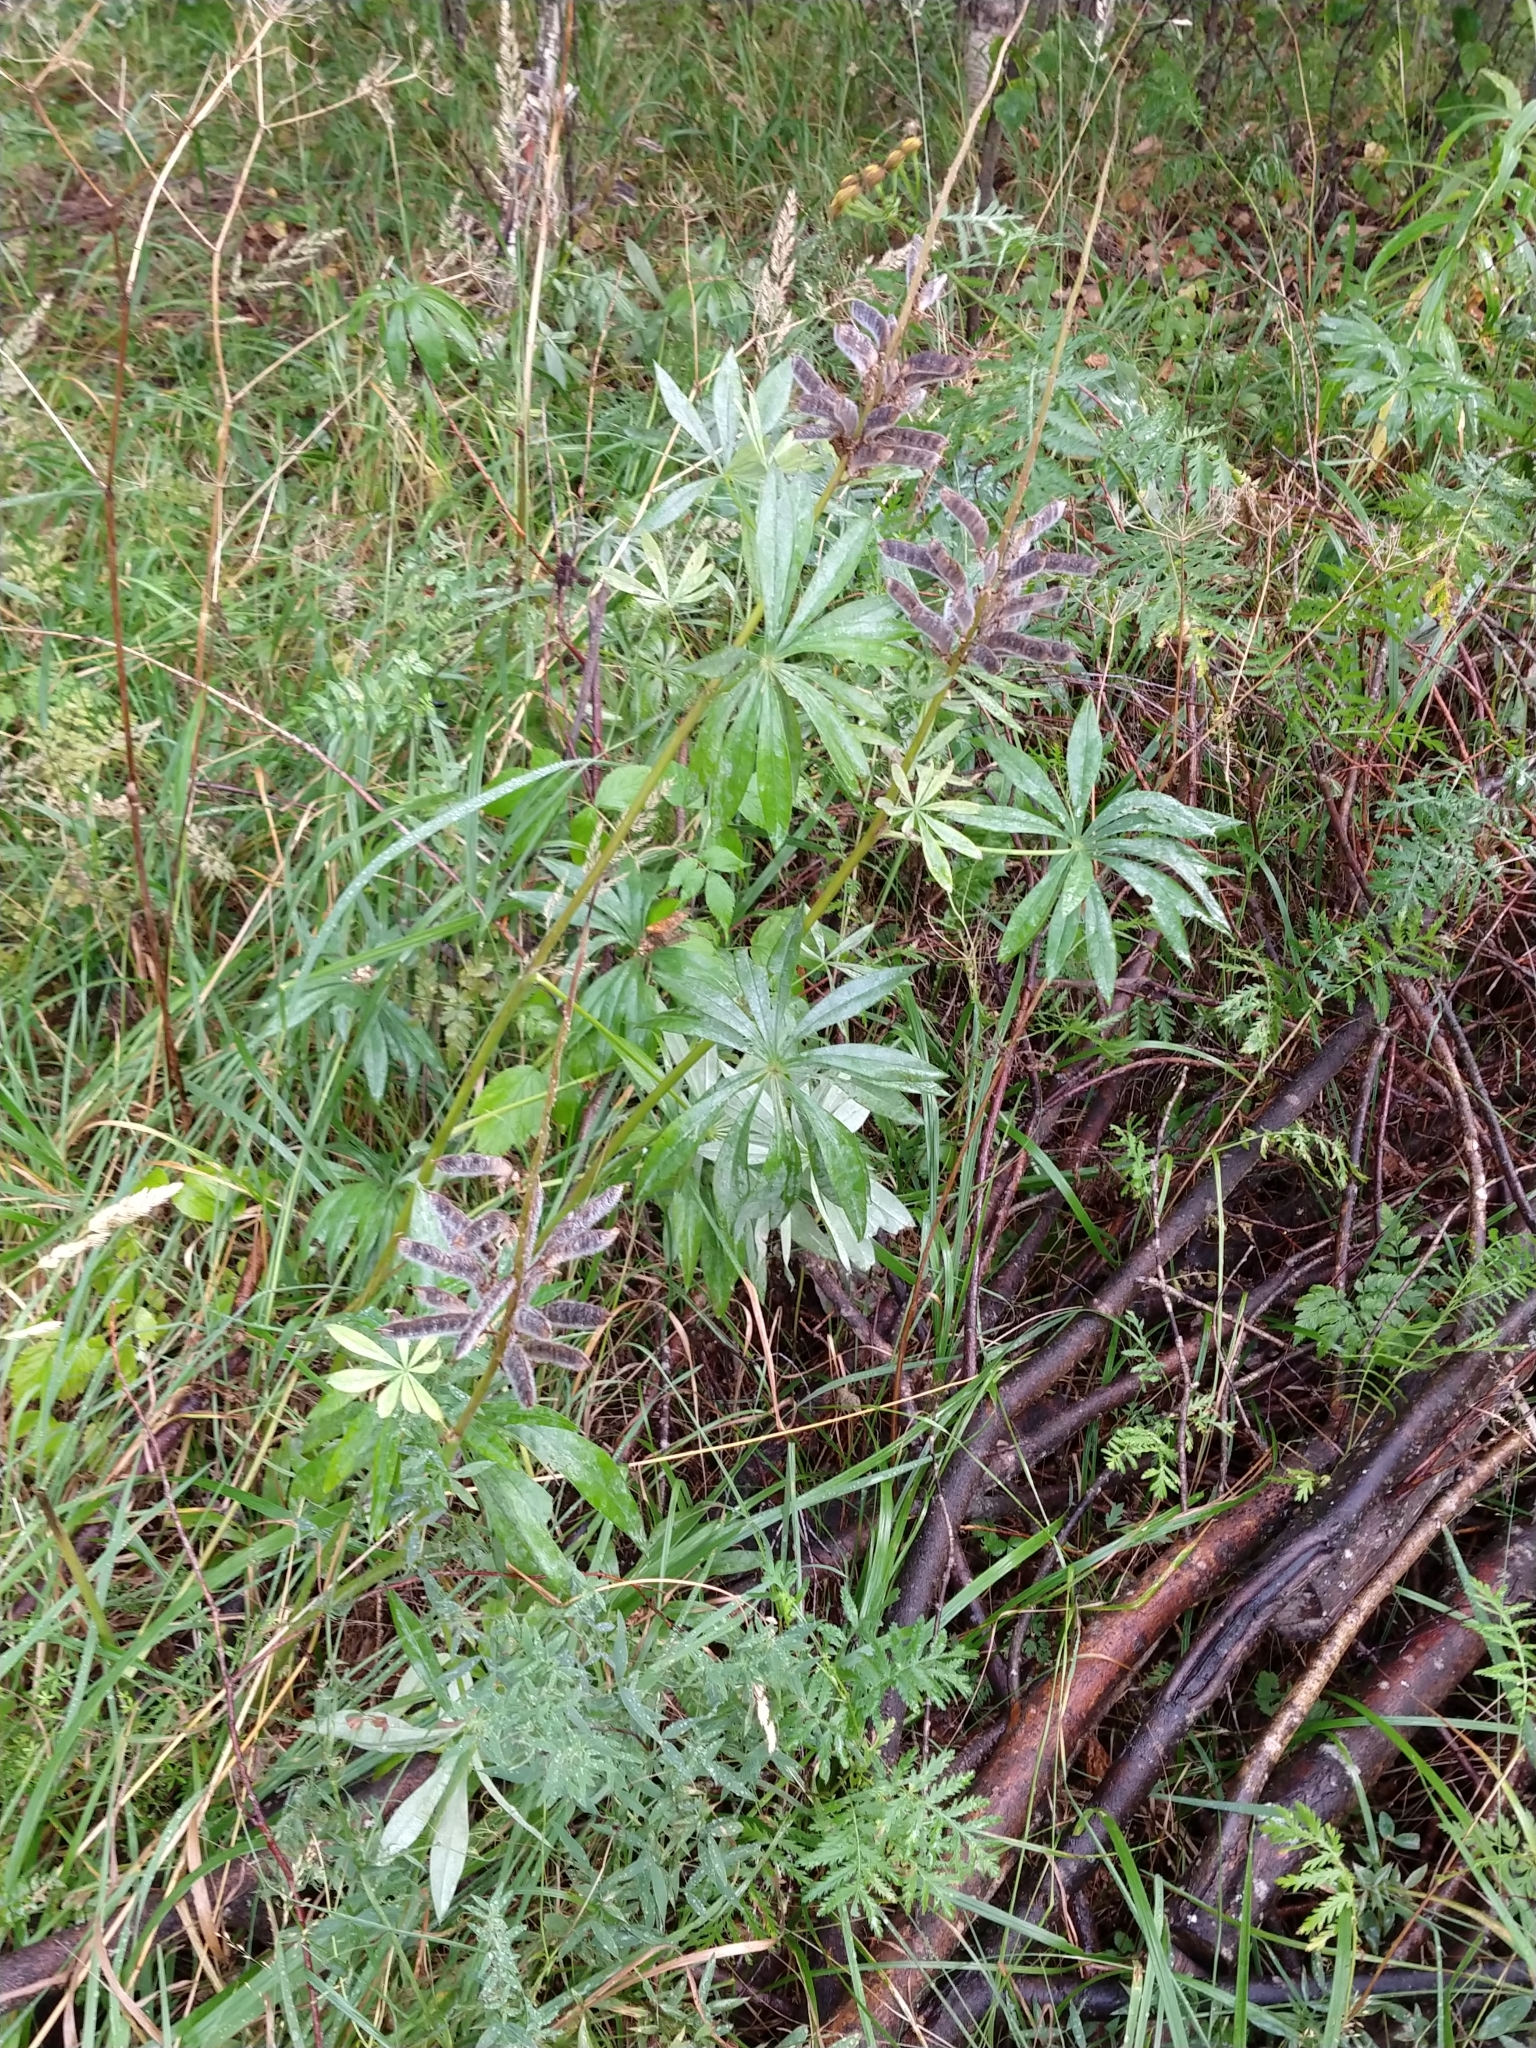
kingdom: Plantae
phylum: Tracheophyta
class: Magnoliopsida
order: Fabales
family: Fabaceae
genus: Lupinus
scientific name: Lupinus polyphyllus
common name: Garden lupin
